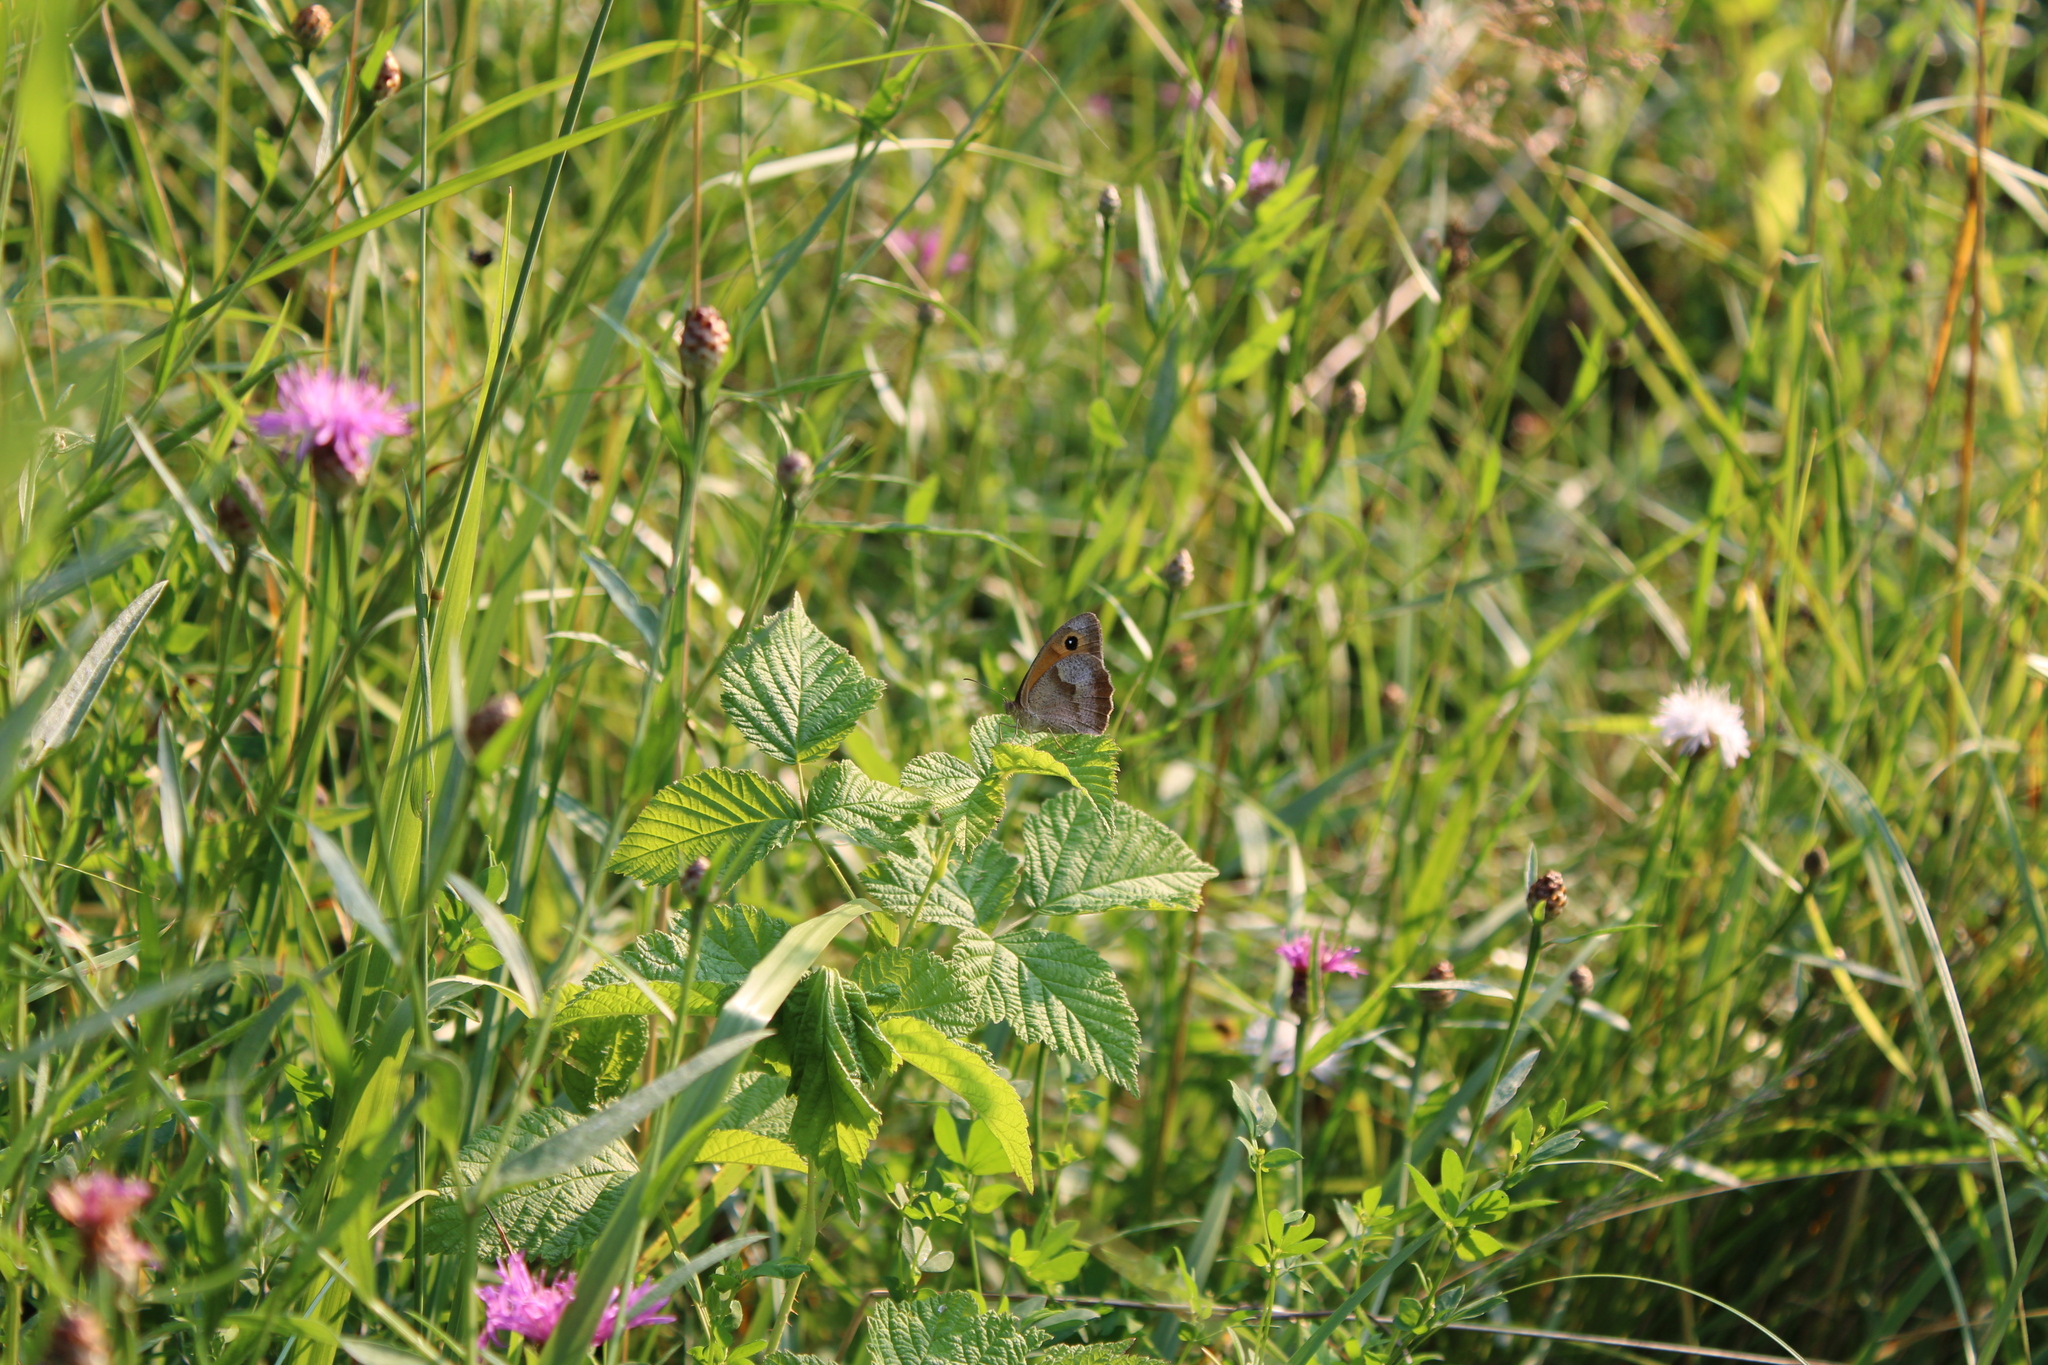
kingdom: Animalia
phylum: Arthropoda
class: Insecta
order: Lepidoptera
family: Nymphalidae
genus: Maniola
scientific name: Maniola jurtina
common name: Meadow brown
